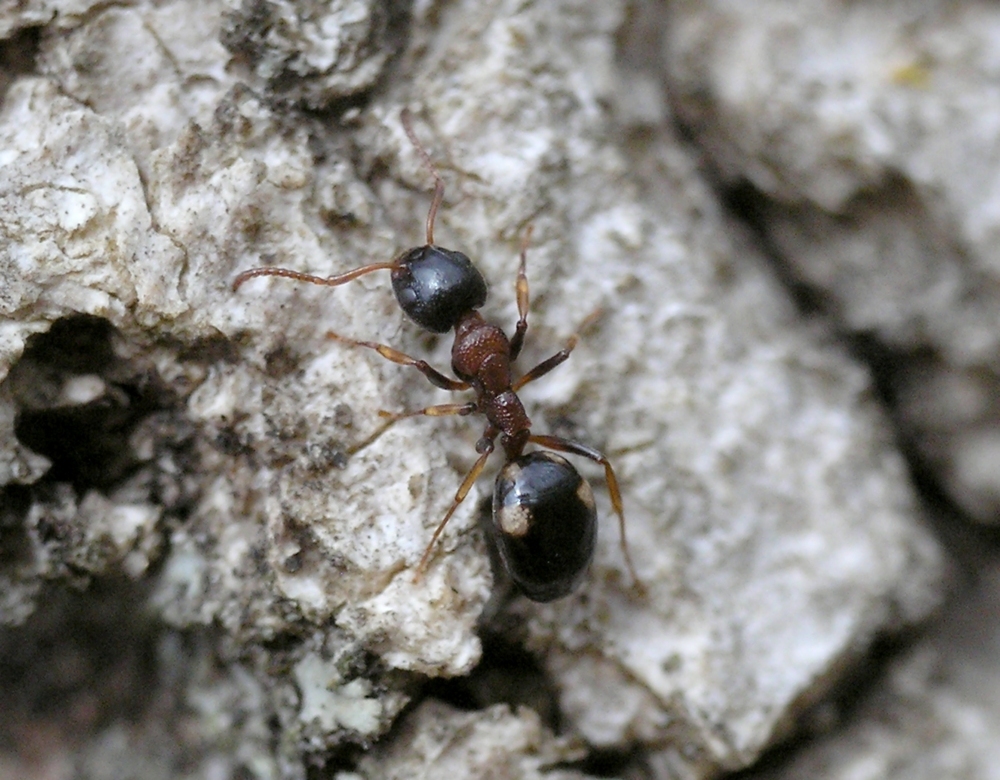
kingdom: Animalia
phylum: Arthropoda
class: Insecta
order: Hymenoptera
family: Formicidae
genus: Dolichoderus
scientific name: Dolichoderus quadripunctatus
